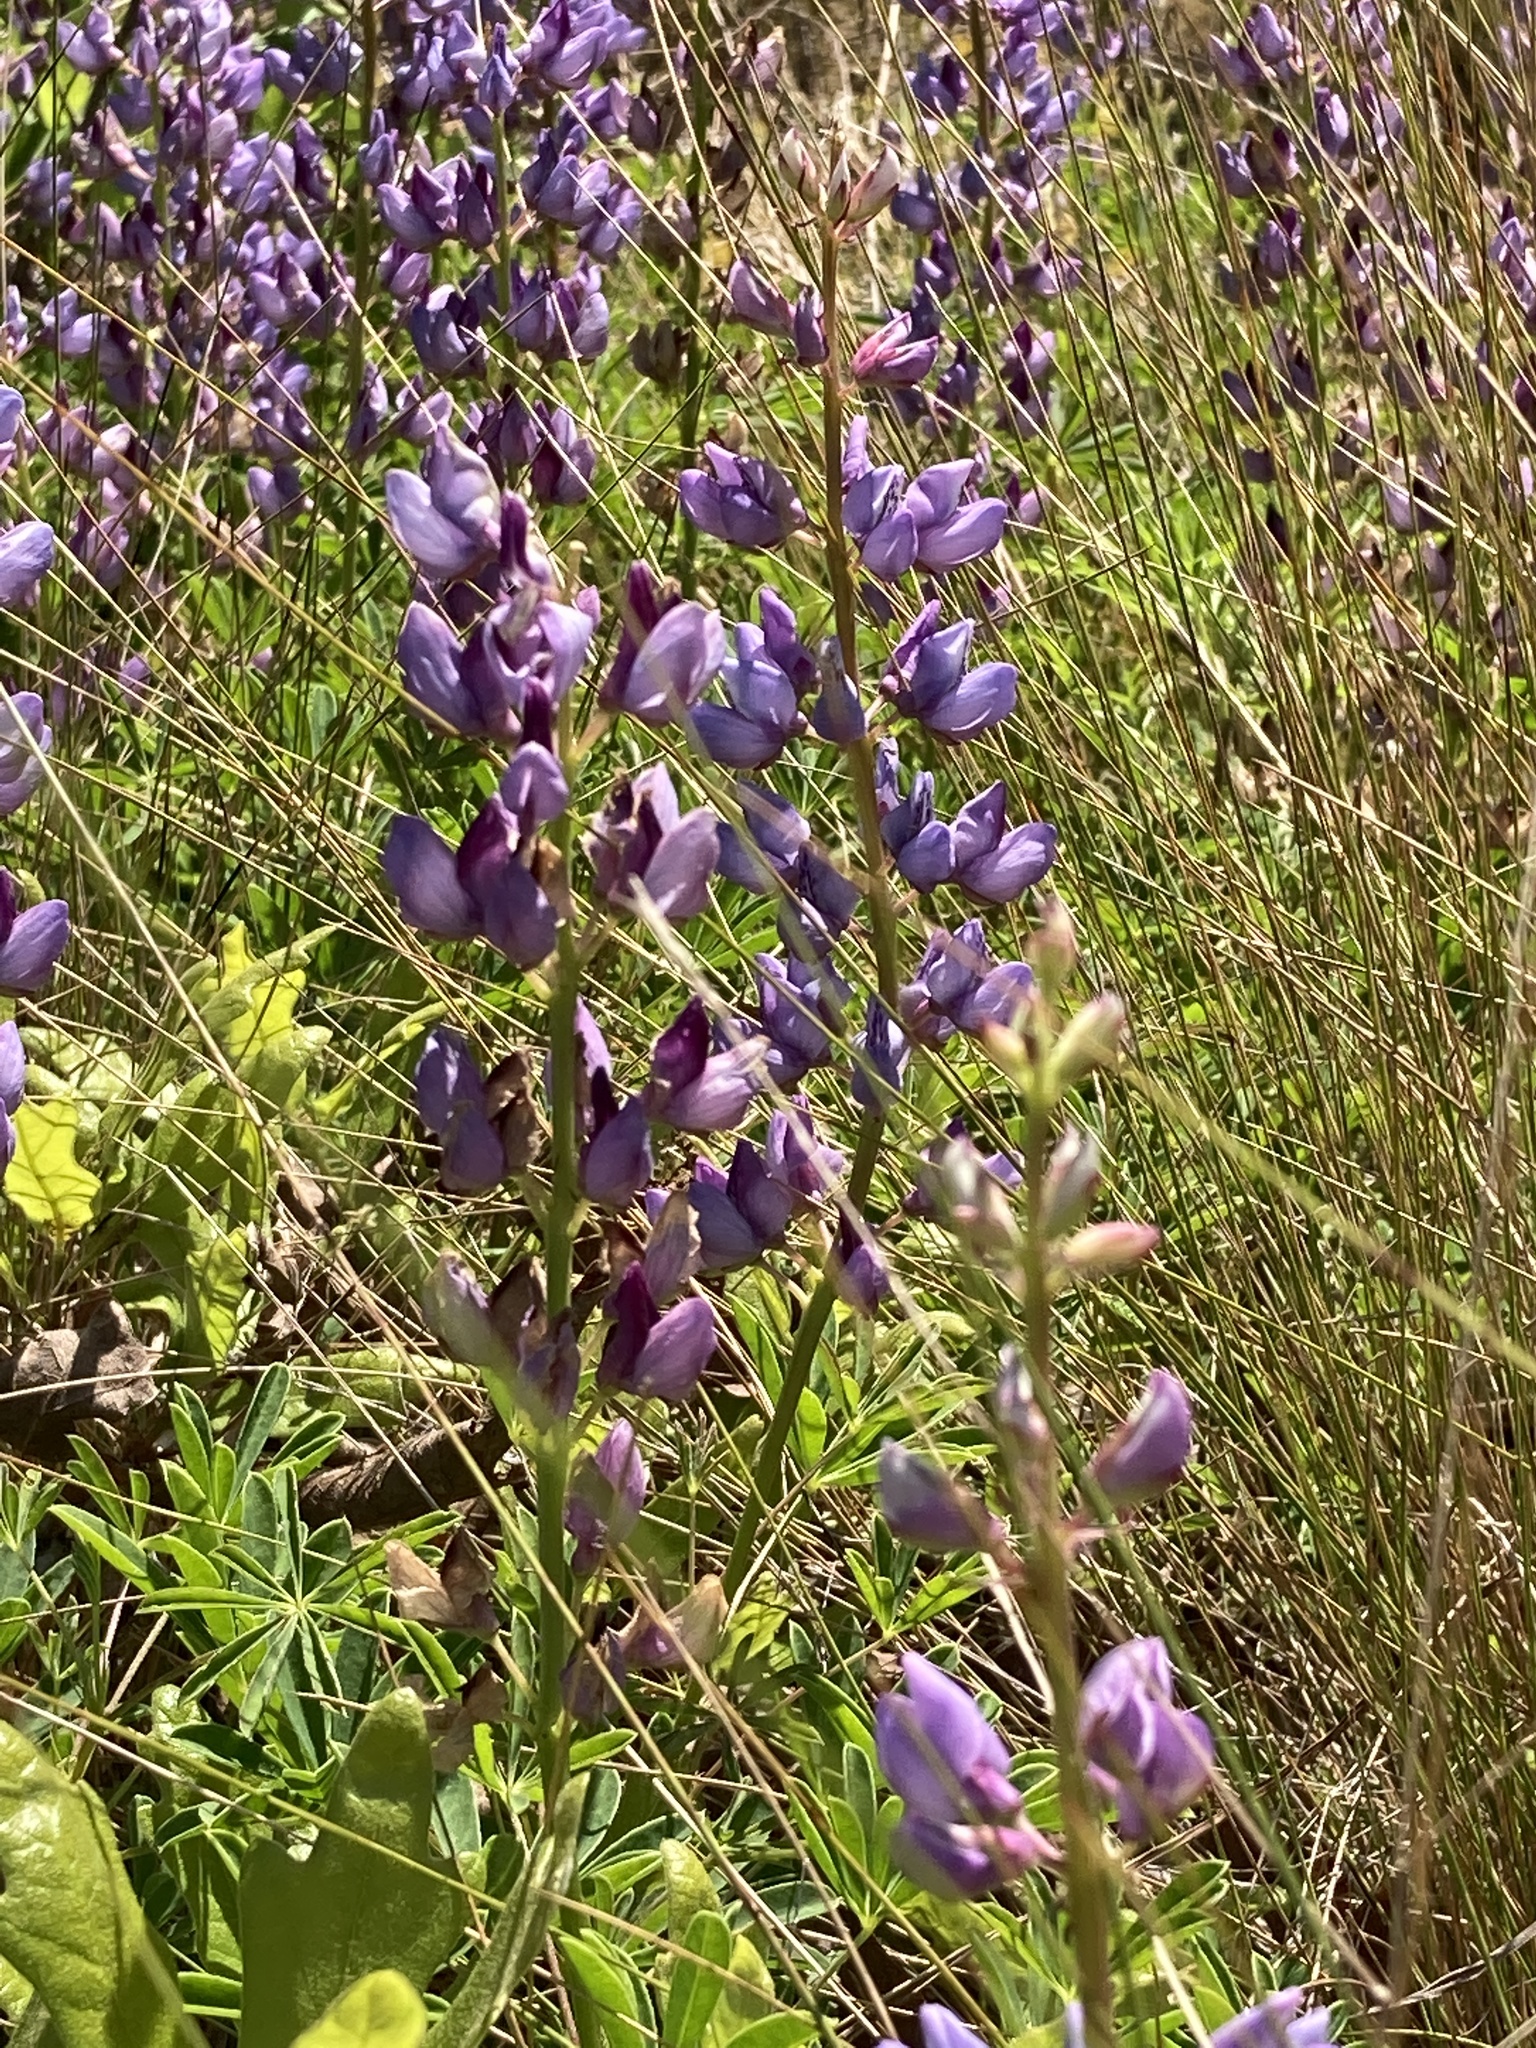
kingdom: Plantae
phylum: Tracheophyta
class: Magnoliopsida
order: Fabales
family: Fabaceae
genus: Lupinus
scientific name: Lupinus perennis
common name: Sundial lupine
